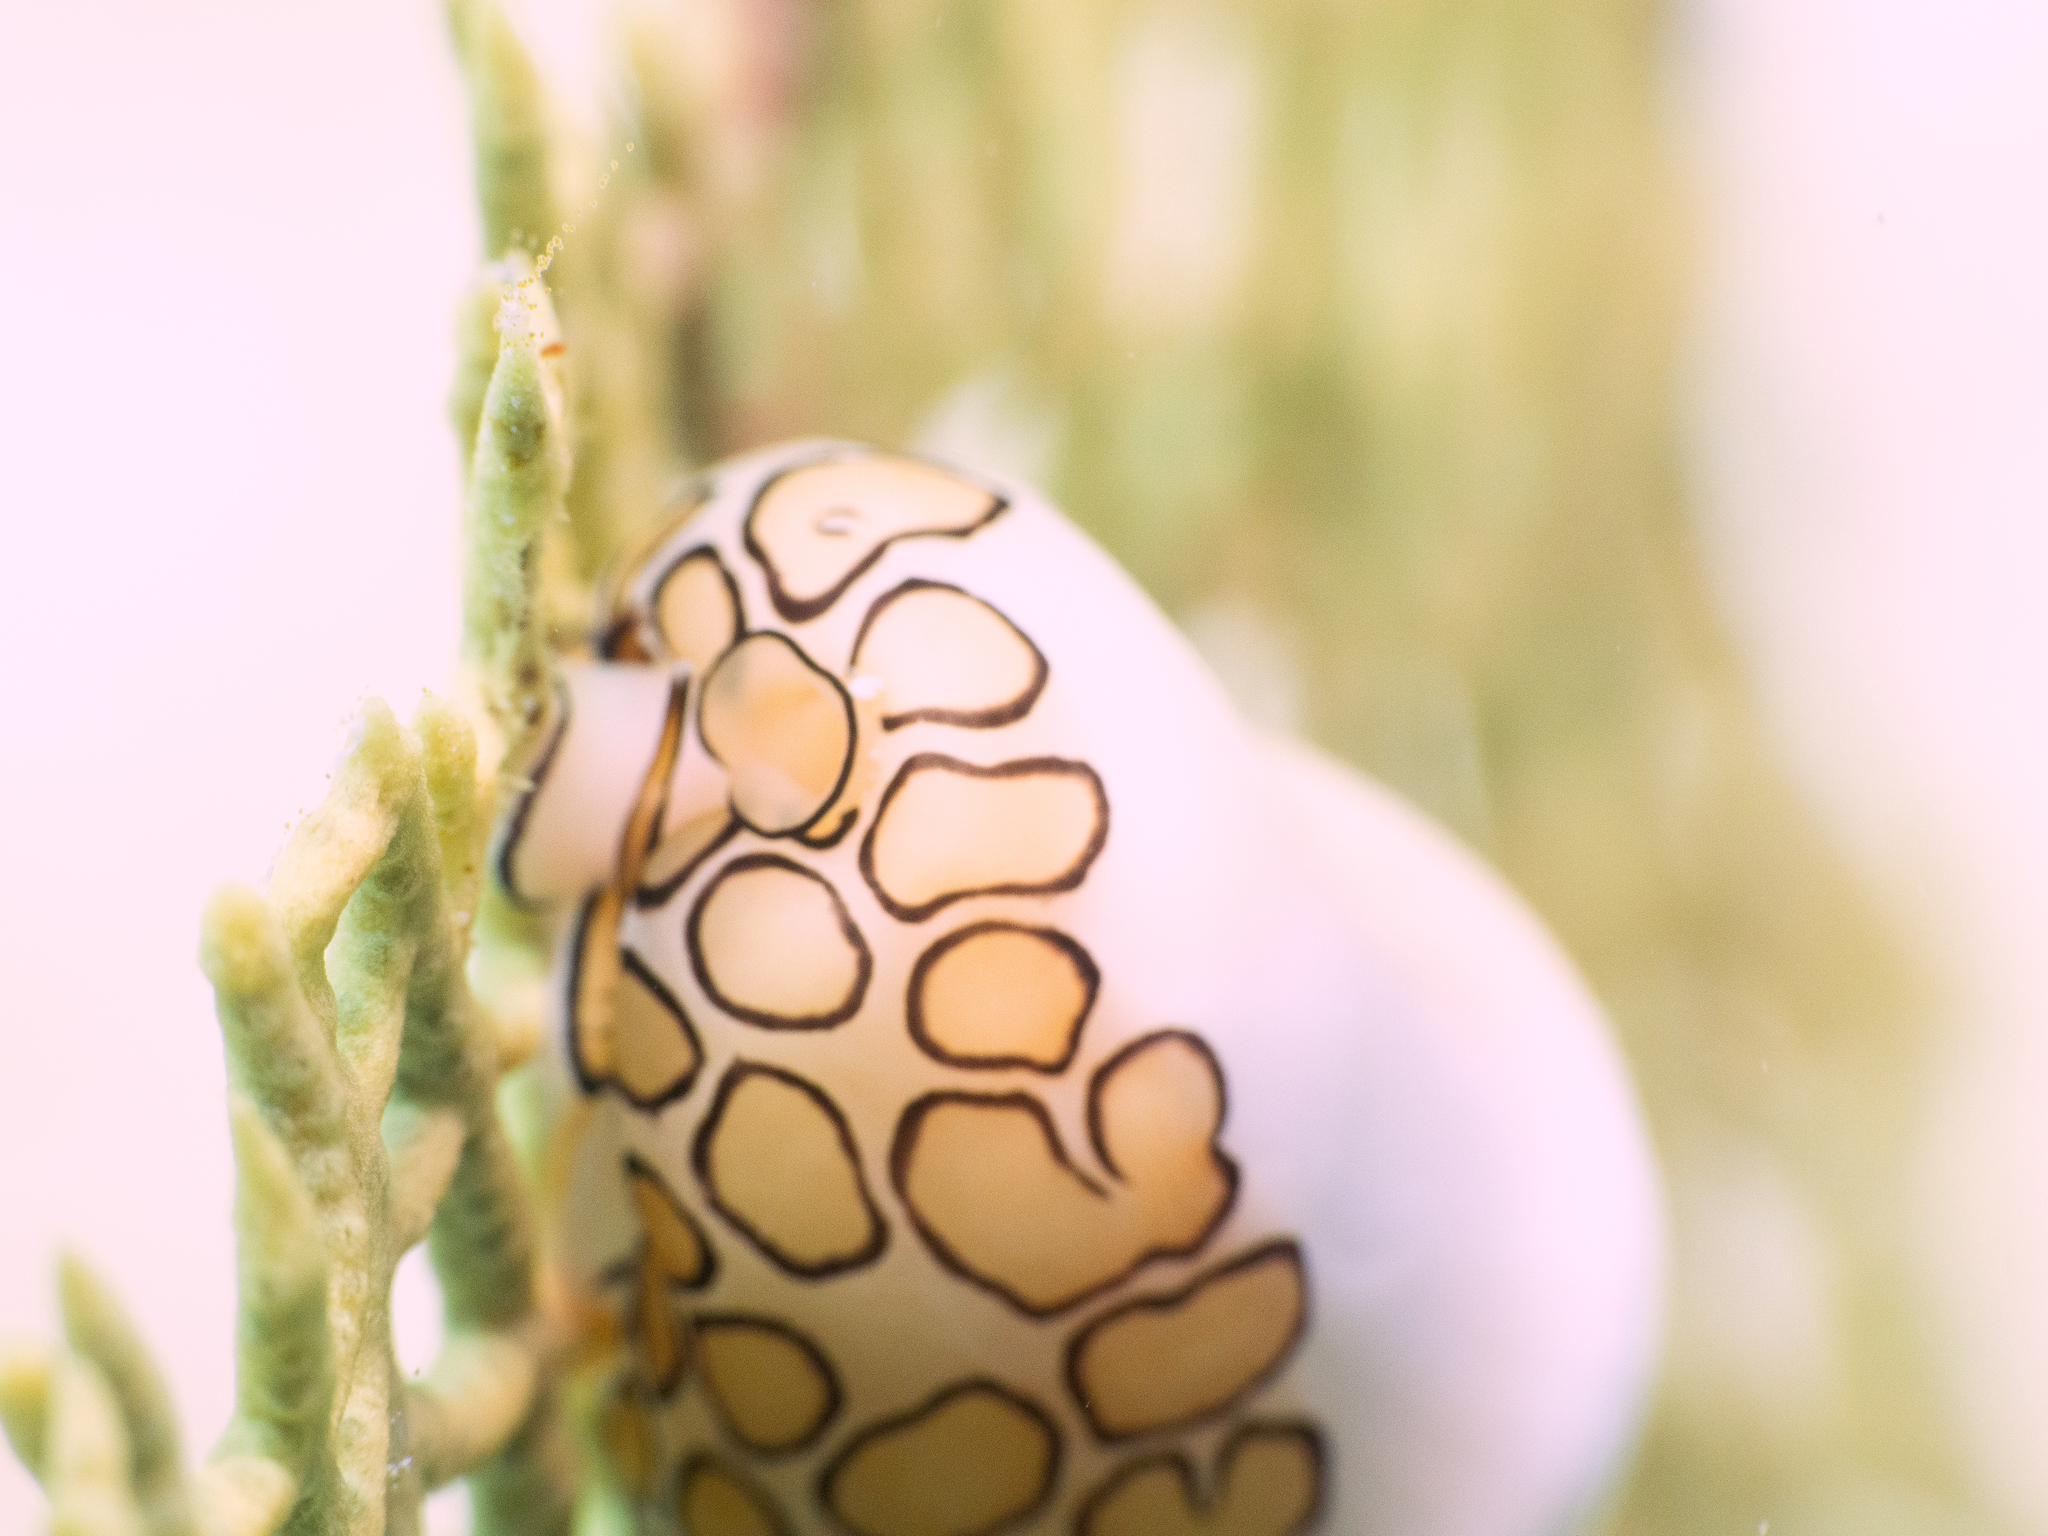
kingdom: Animalia
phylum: Mollusca
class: Gastropoda
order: Littorinimorpha
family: Ovulidae
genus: Cyphoma
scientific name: Cyphoma gibbosum
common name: Flamingo tongue
